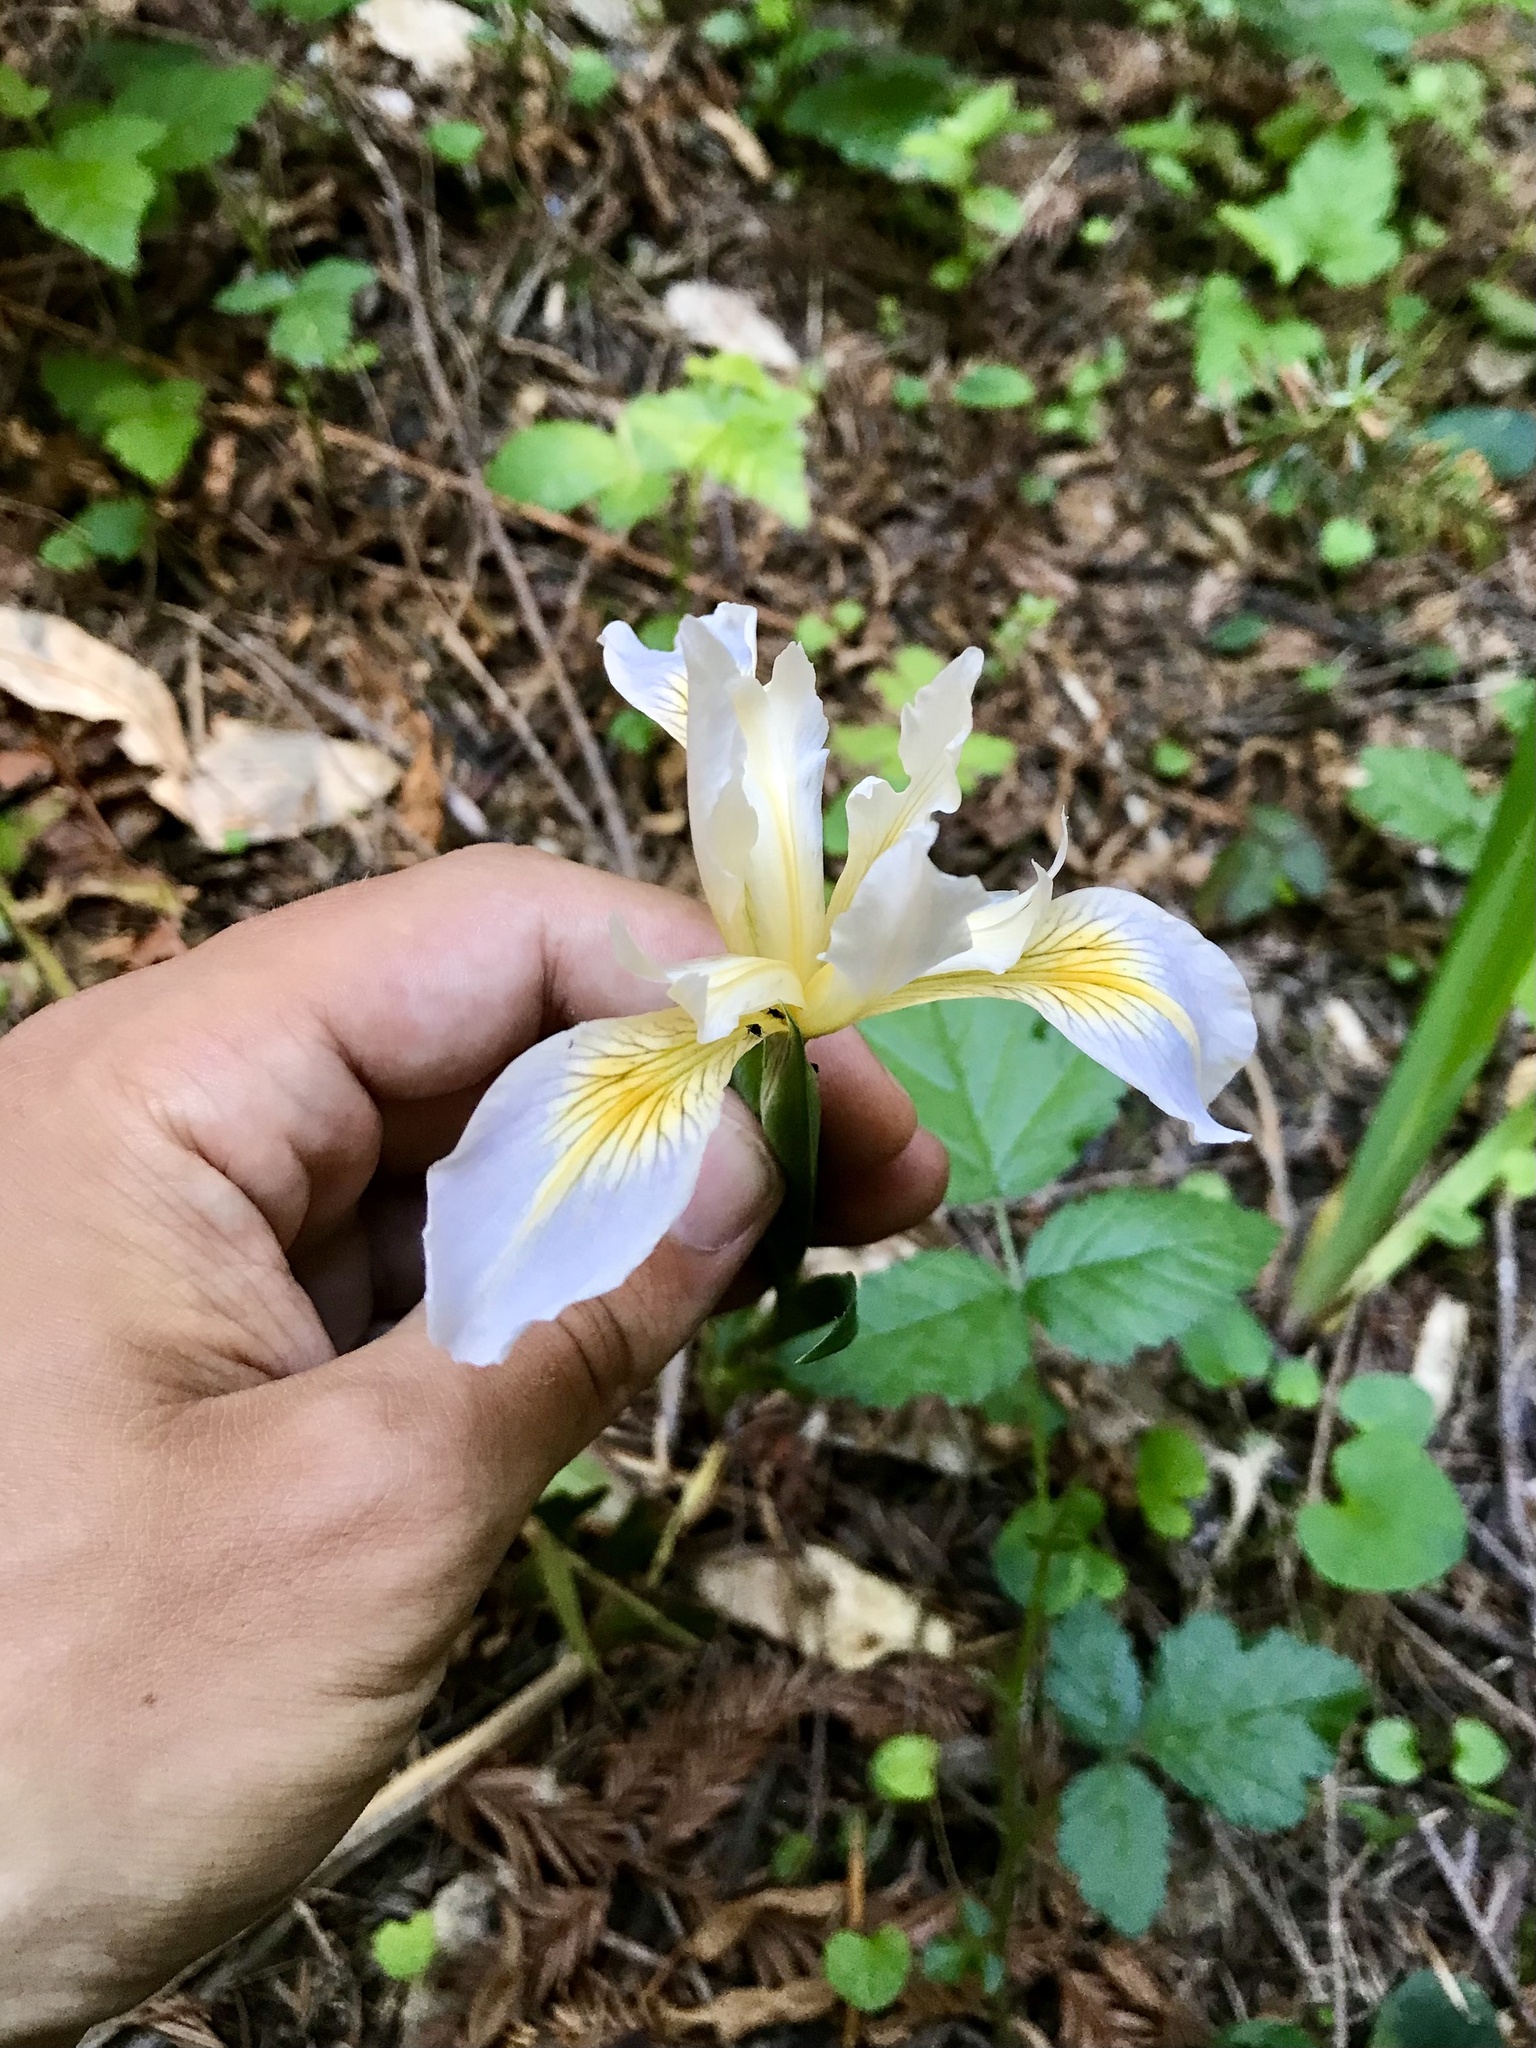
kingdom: Plantae
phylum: Tracheophyta
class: Liliopsida
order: Asparagales
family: Iridaceae
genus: Iris
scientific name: Iris douglasiana
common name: Marin iris
